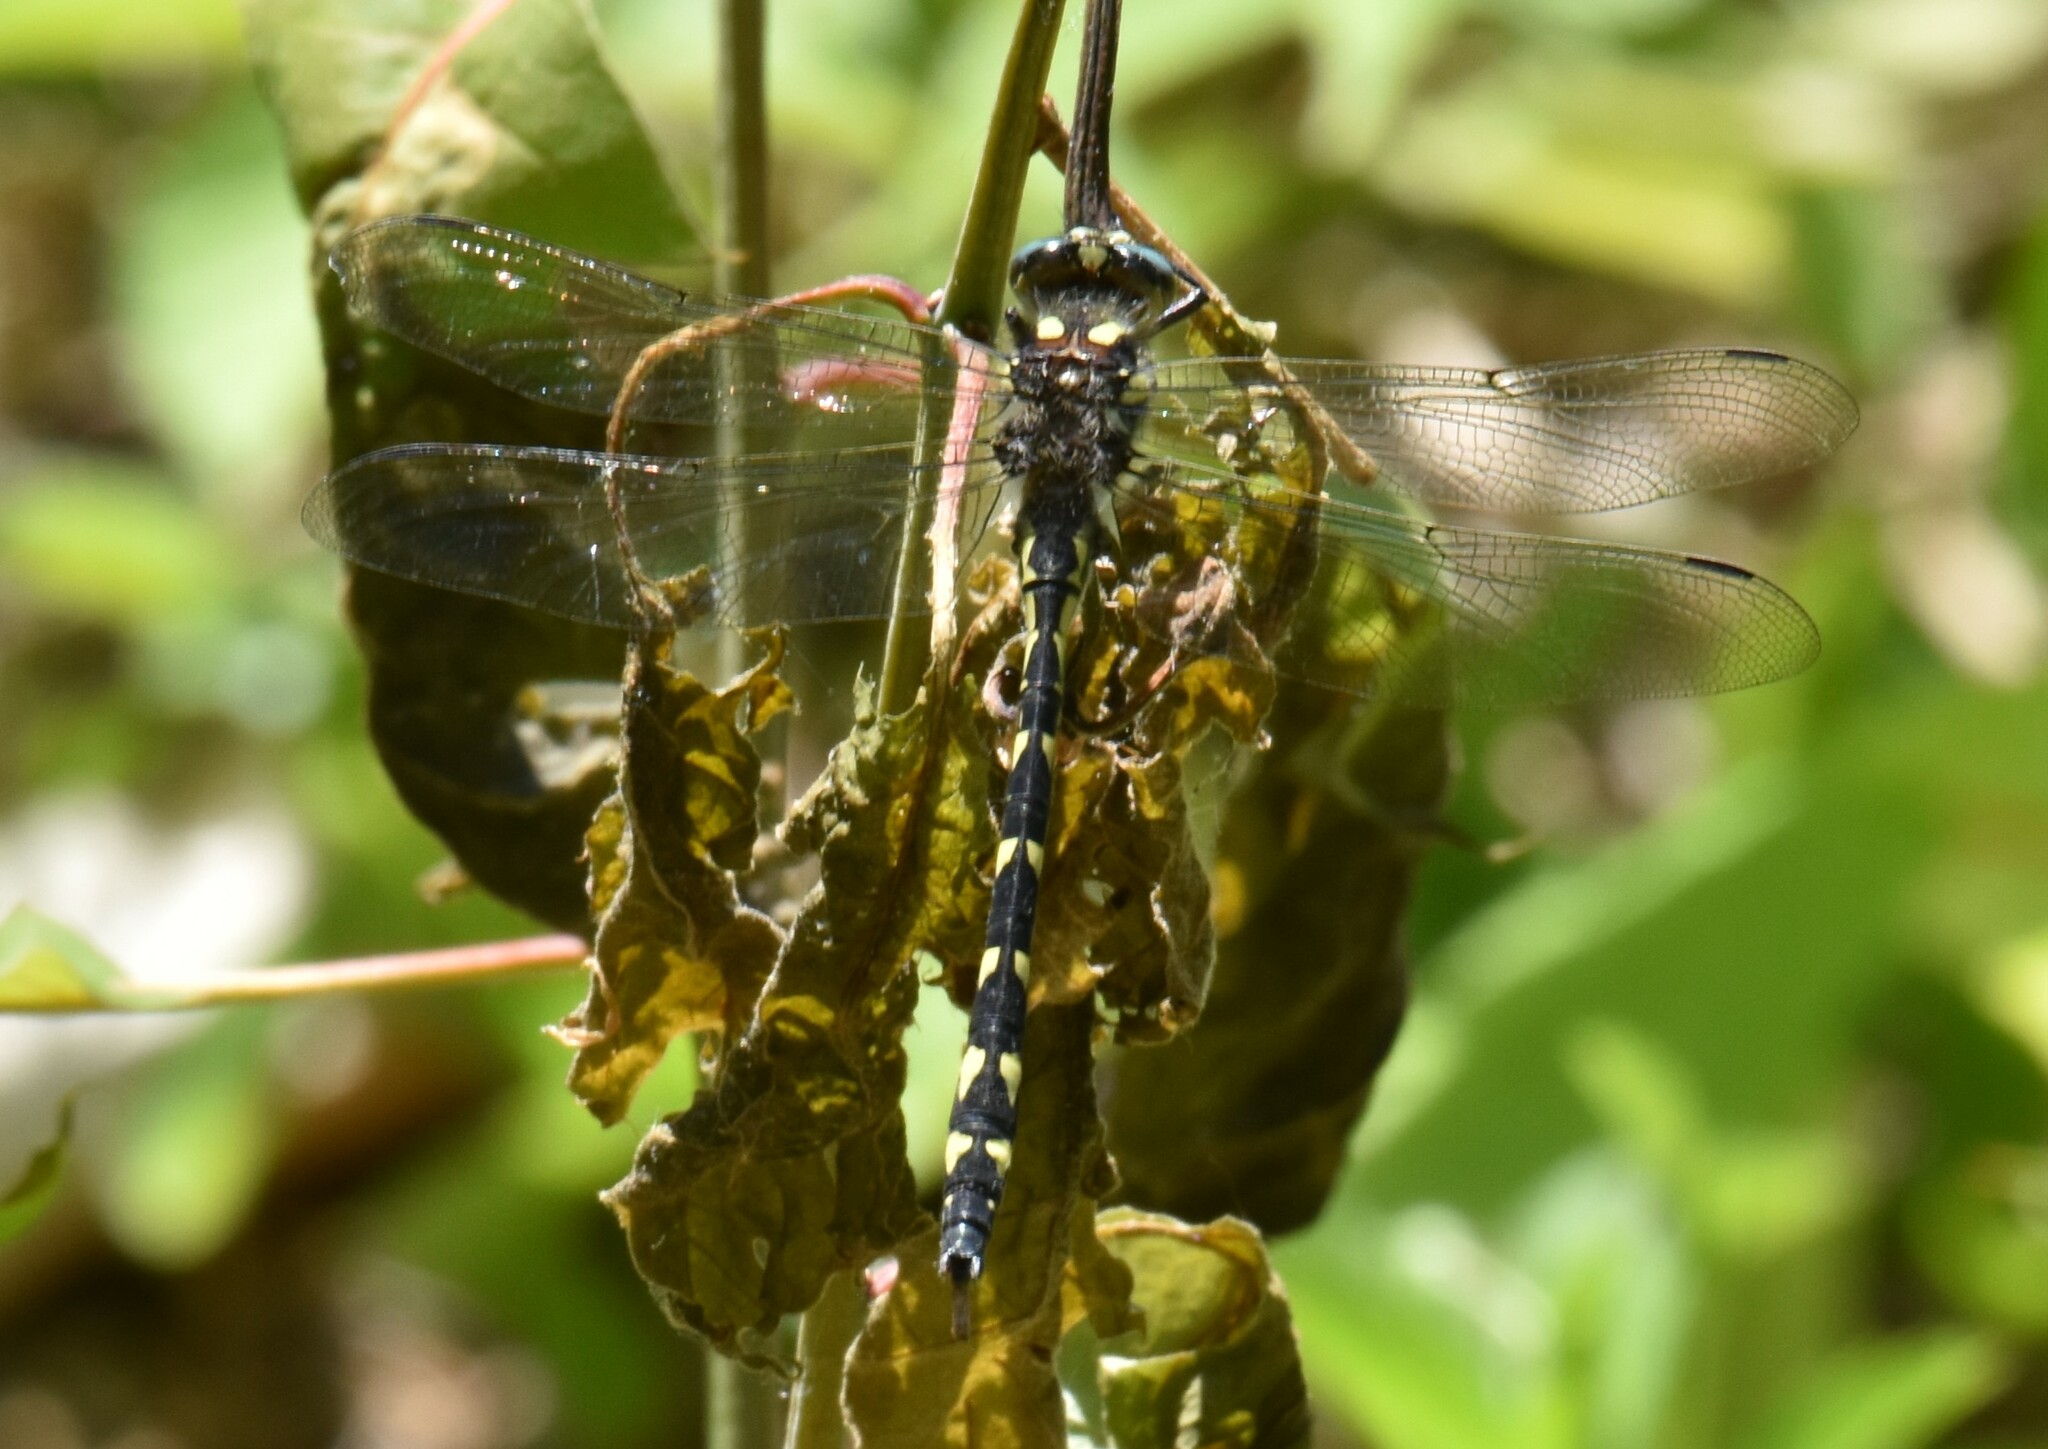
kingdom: Animalia
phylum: Arthropoda
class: Insecta
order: Odonata
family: Cordulegastridae
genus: Cordulegaster
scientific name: Cordulegaster diastatops
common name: Delta-spotted spiketail
